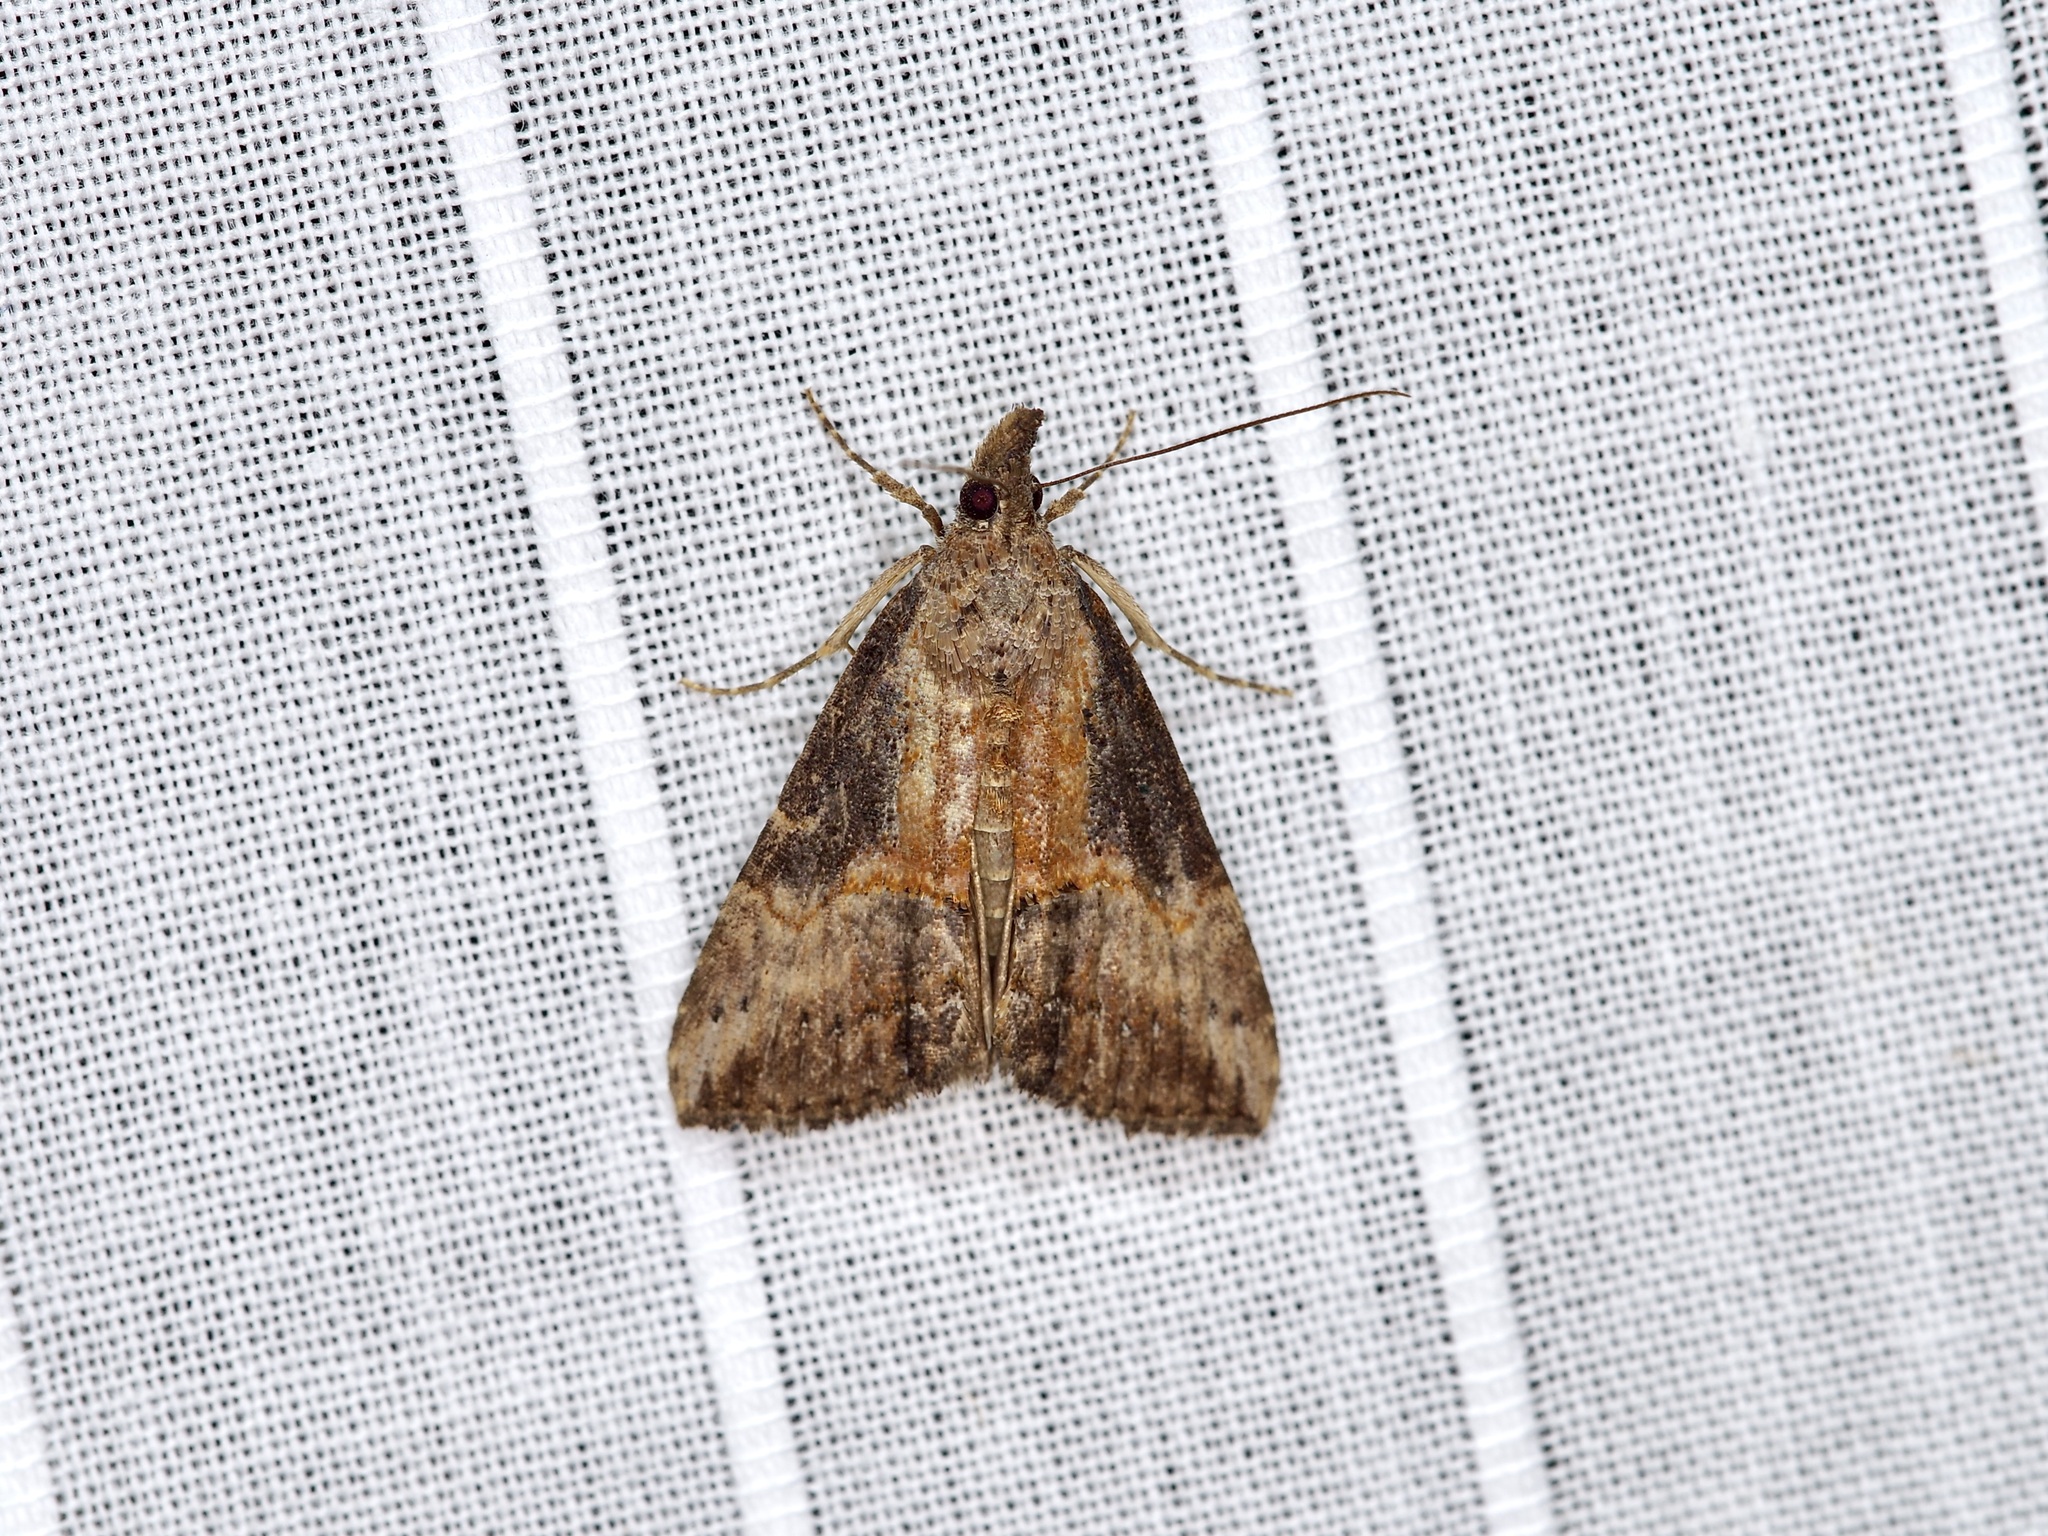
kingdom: Animalia
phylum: Arthropoda
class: Insecta
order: Lepidoptera
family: Erebidae
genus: Hypena
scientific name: Hypena scabra
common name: Green cloverworm
